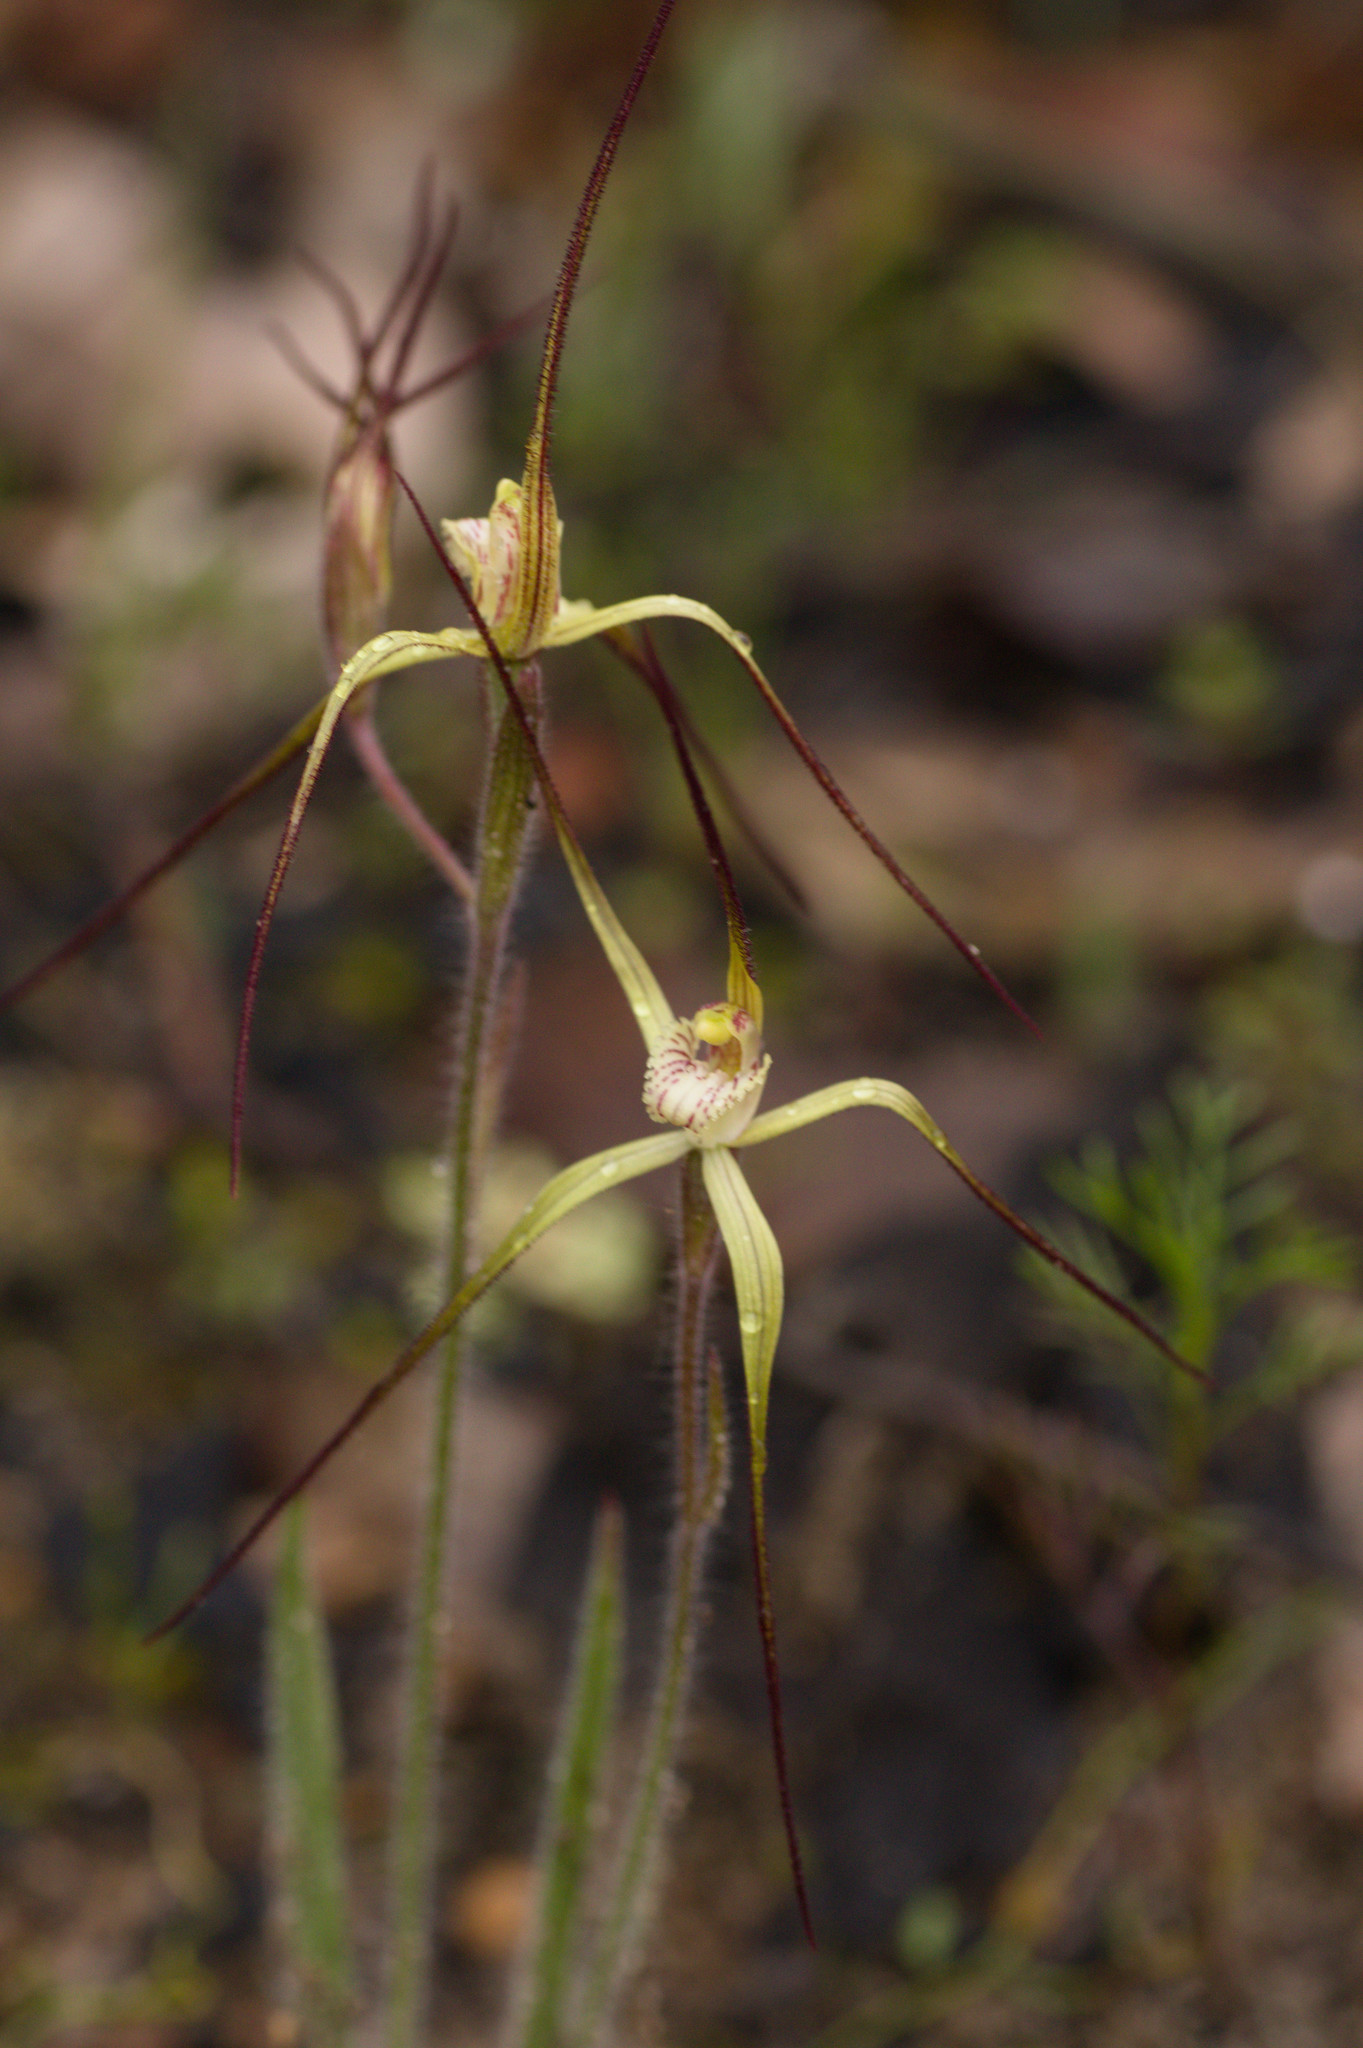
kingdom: Plantae
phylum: Tracheophyta
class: Liliopsida
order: Asparagales
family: Orchidaceae
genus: Caladenia
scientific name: Caladenia xantha
